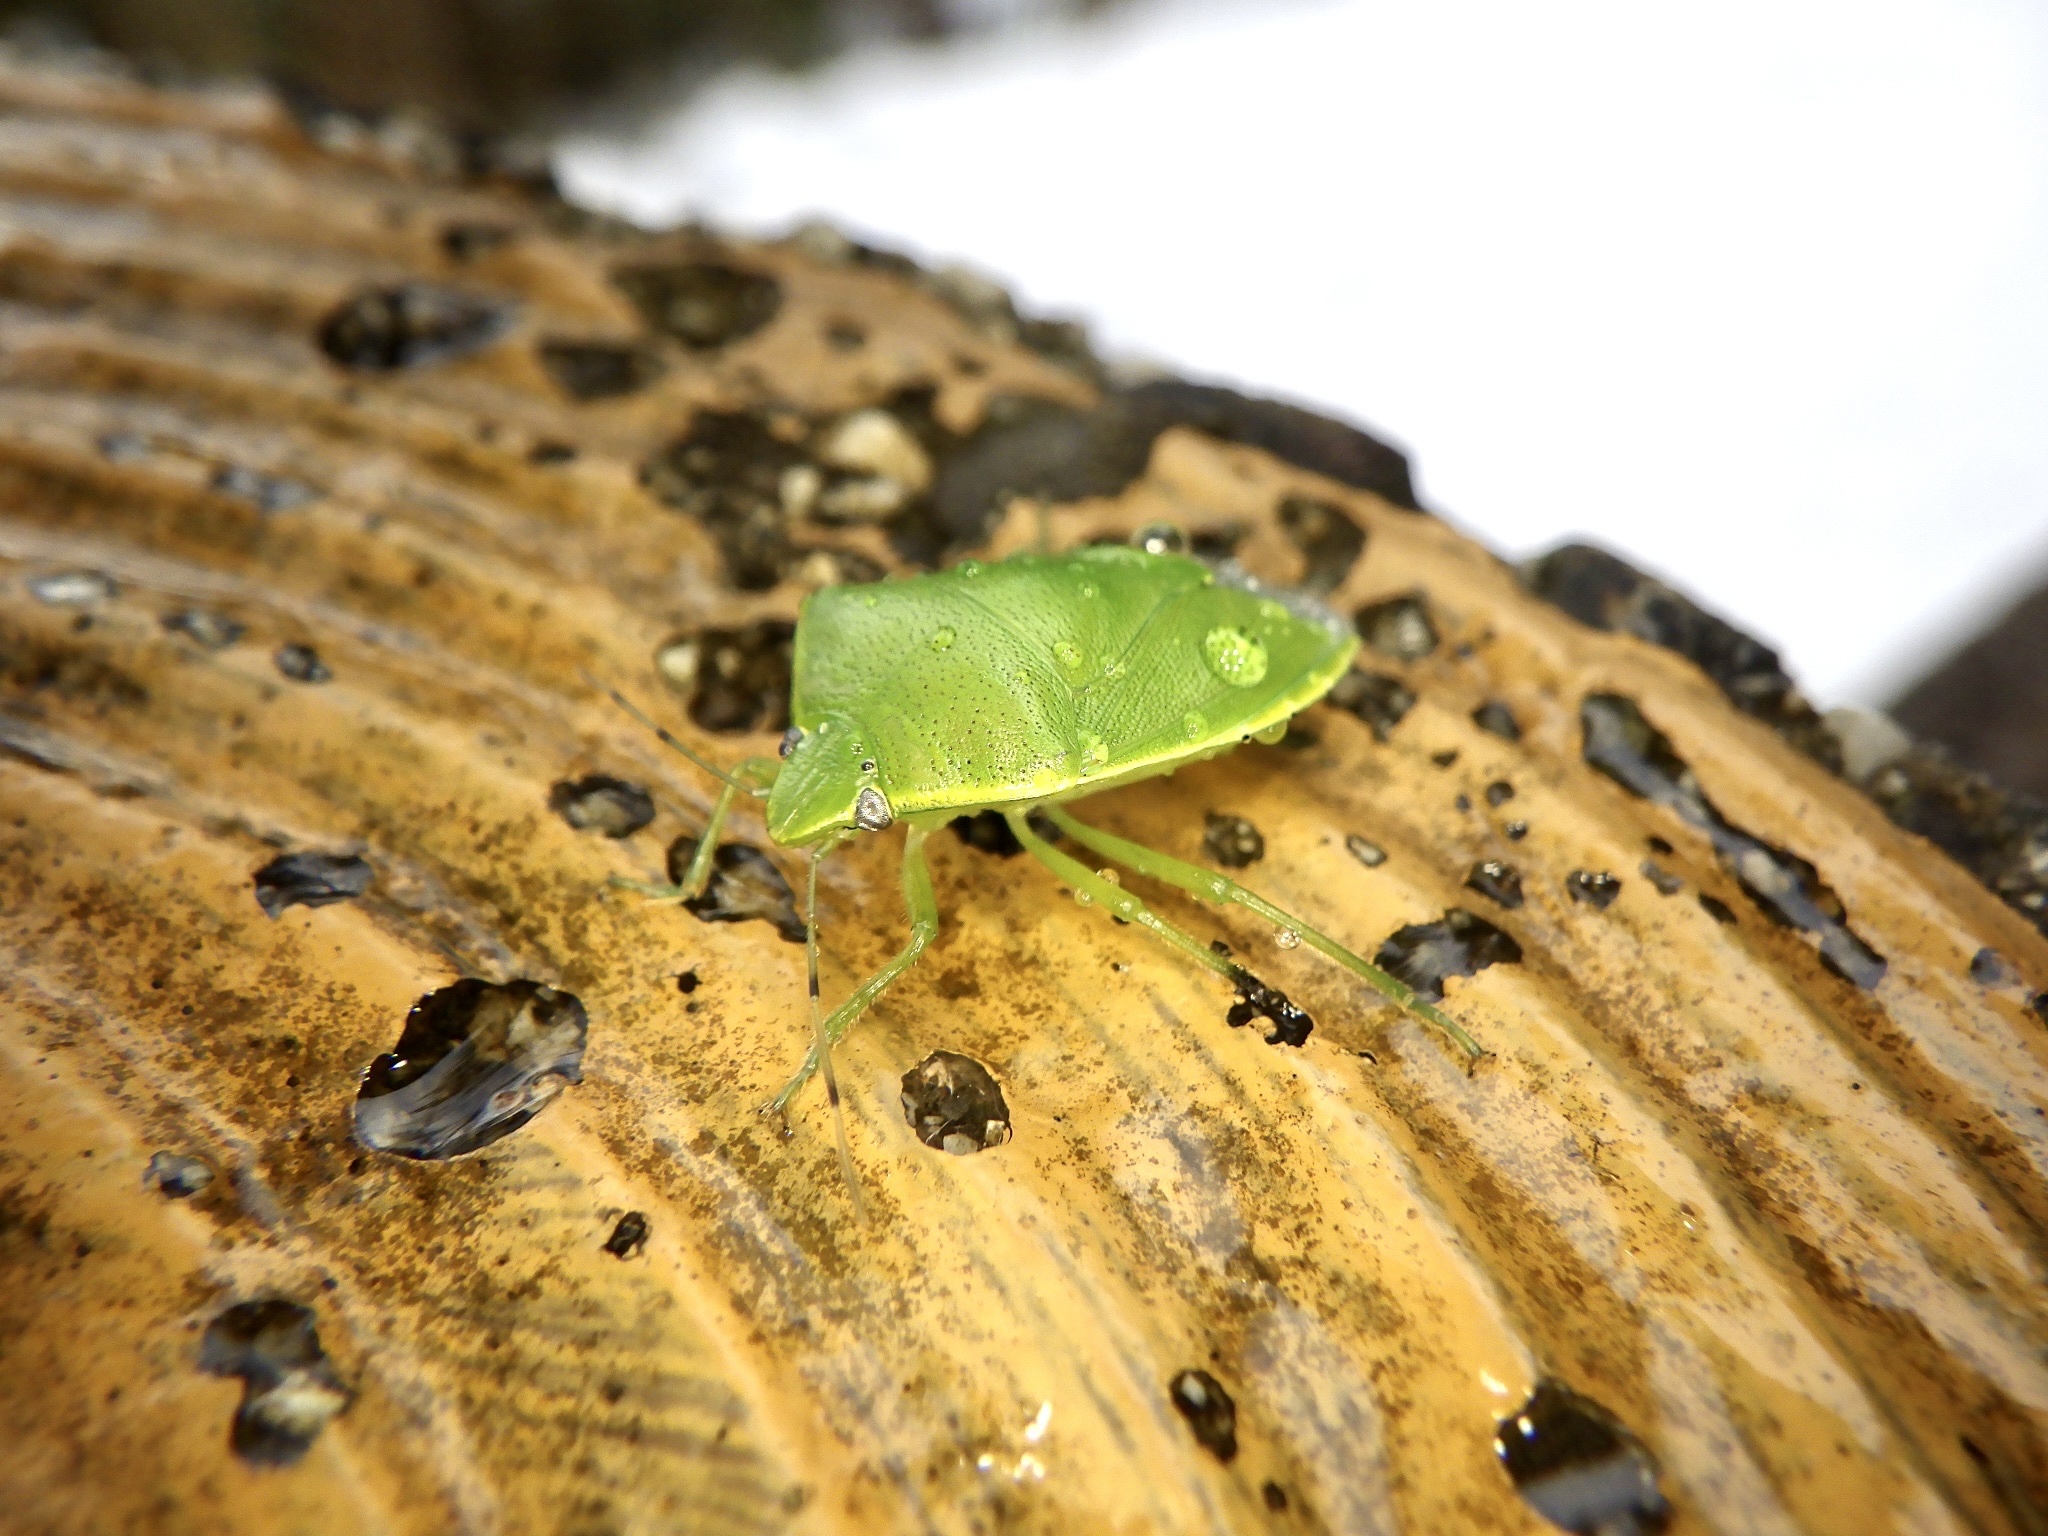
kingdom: Animalia
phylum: Arthropoda
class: Insecta
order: Hemiptera
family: Pentatomidae
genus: Glaucias
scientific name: Glaucias subpunctatus
